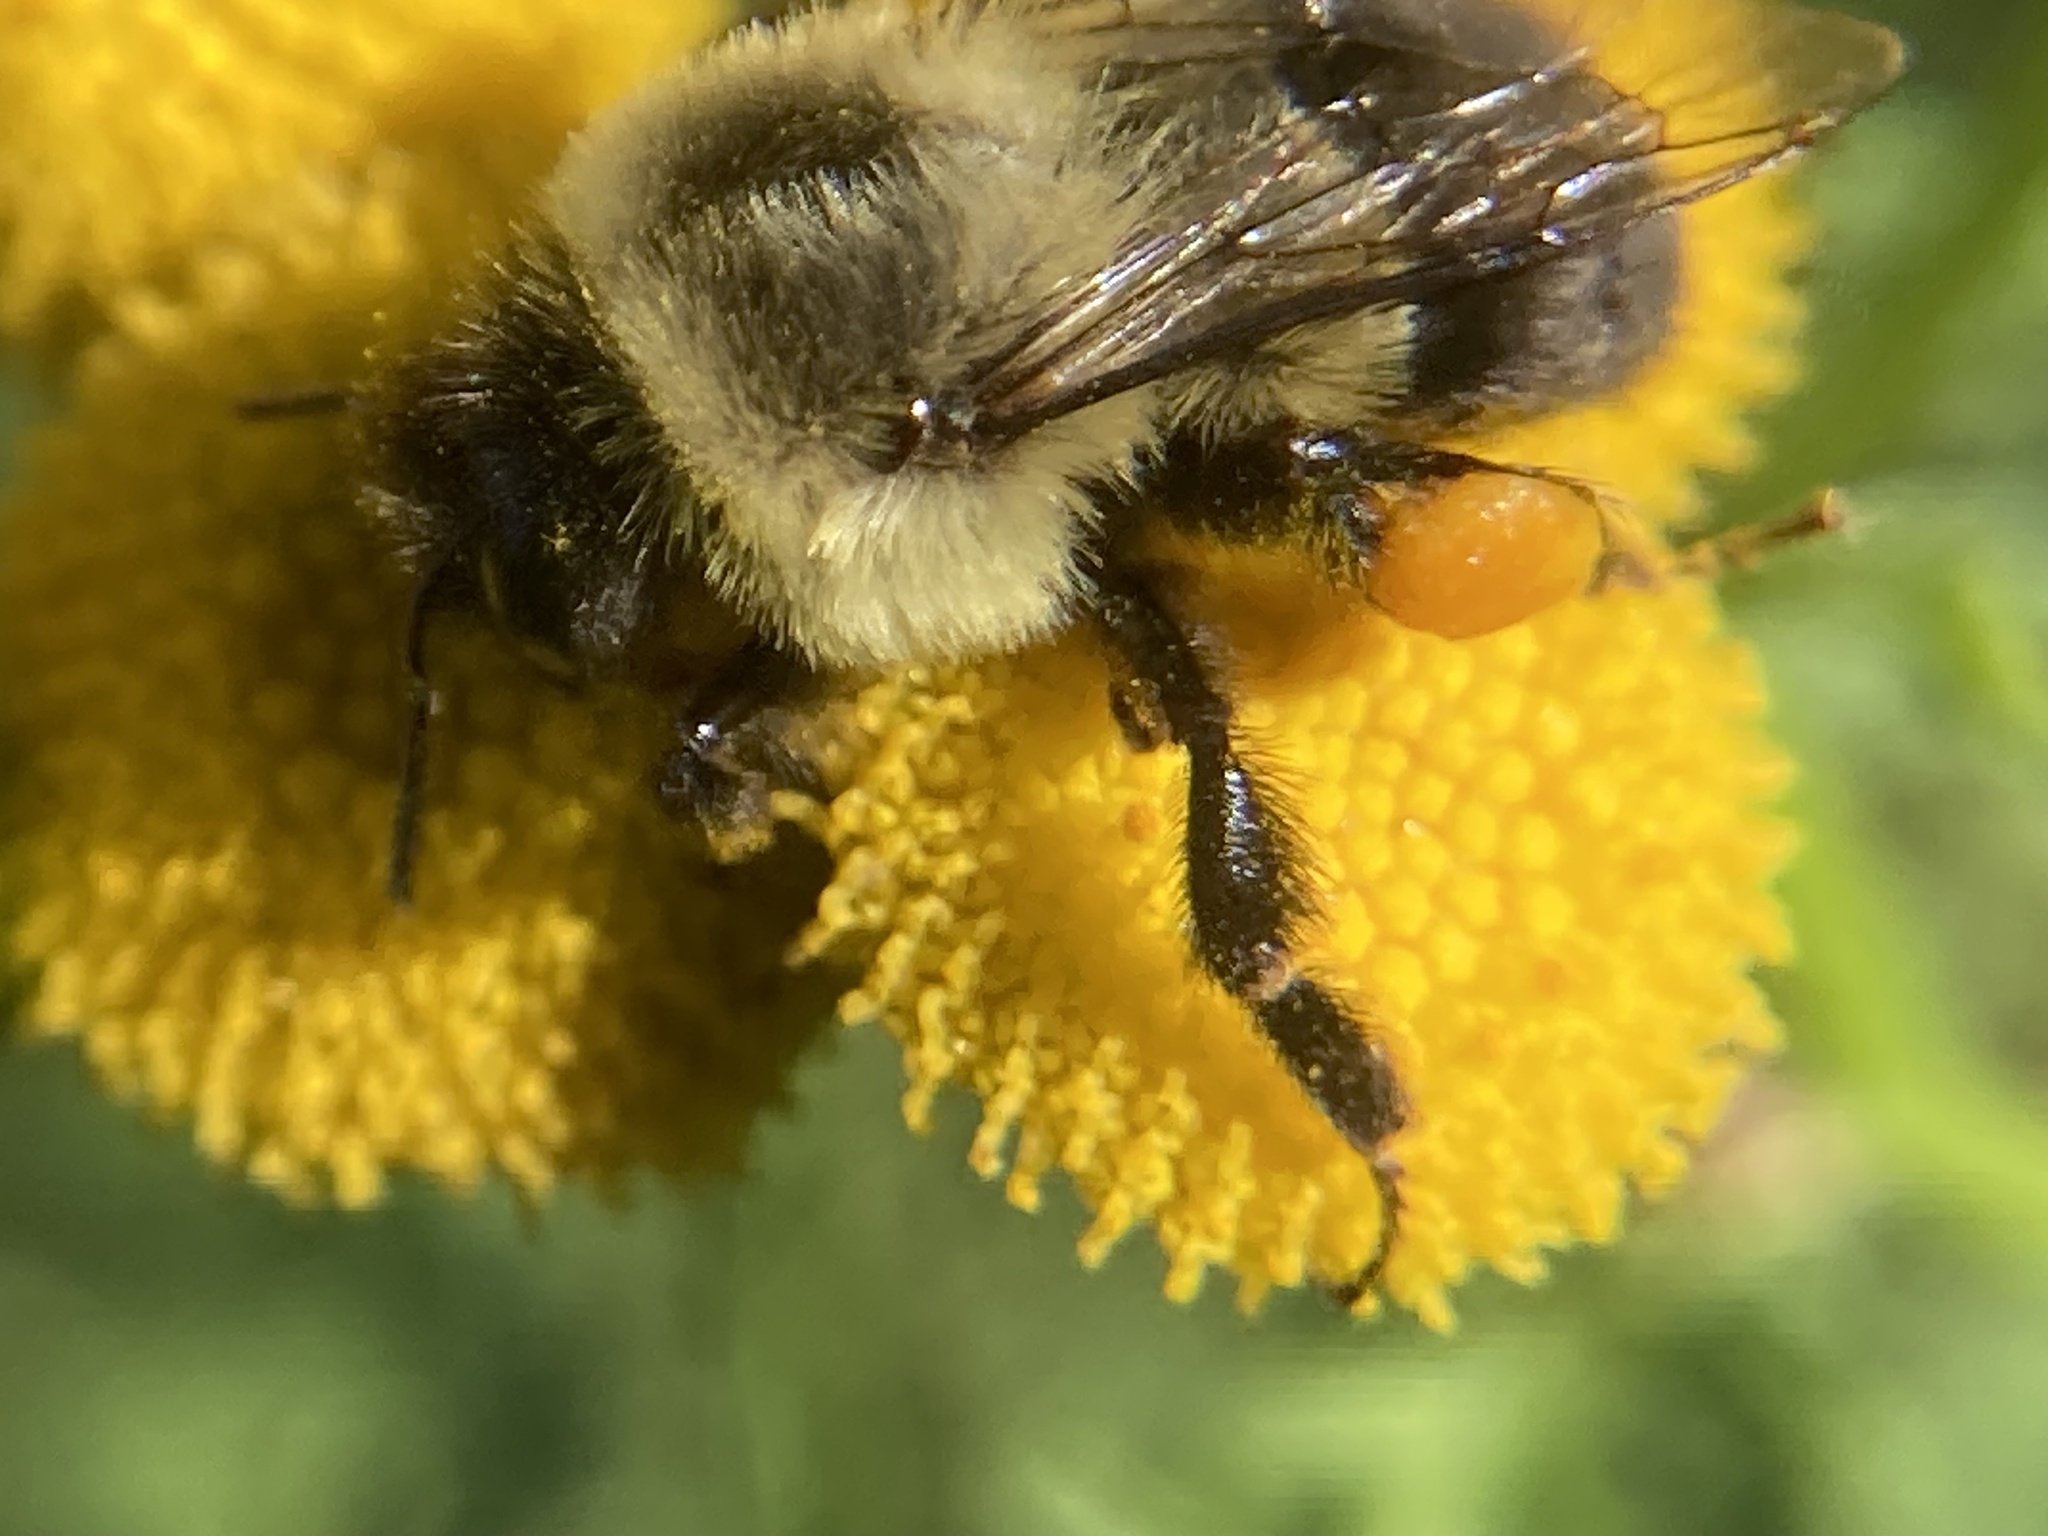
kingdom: Animalia
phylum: Arthropoda
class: Insecta
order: Hymenoptera
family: Apidae
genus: Bombus
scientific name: Bombus impatiens
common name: Common eastern bumble bee
